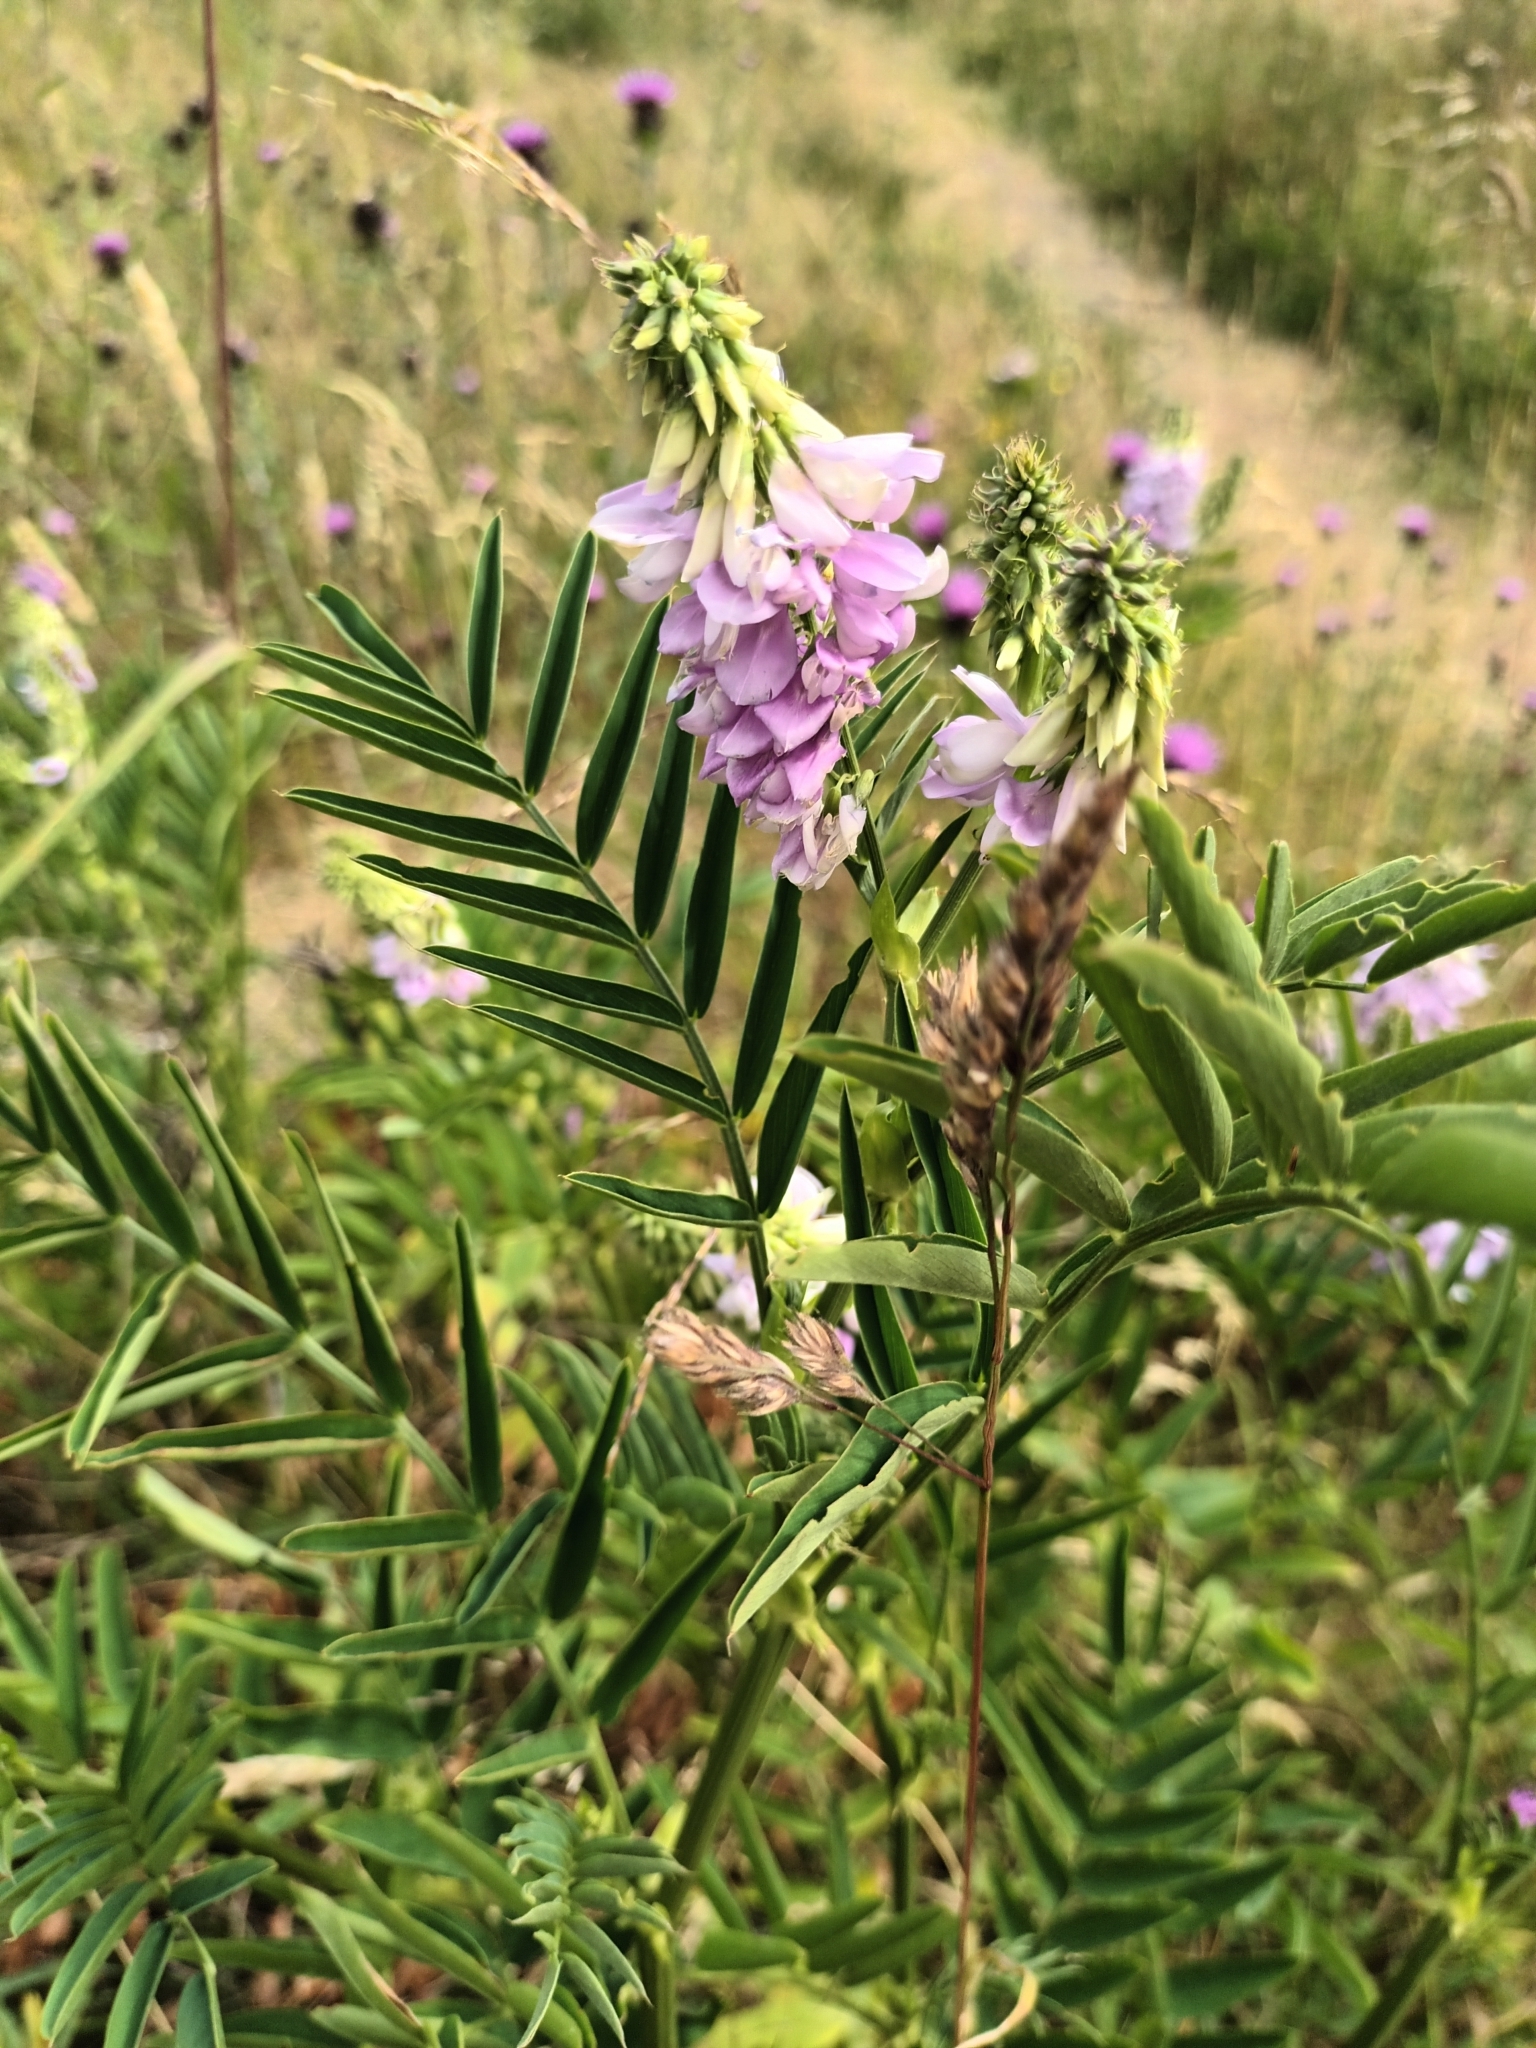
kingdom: Plantae
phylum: Tracheophyta
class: Magnoliopsida
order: Fabales
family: Fabaceae
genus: Galega
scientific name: Galega officinalis
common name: Goat's-rue
